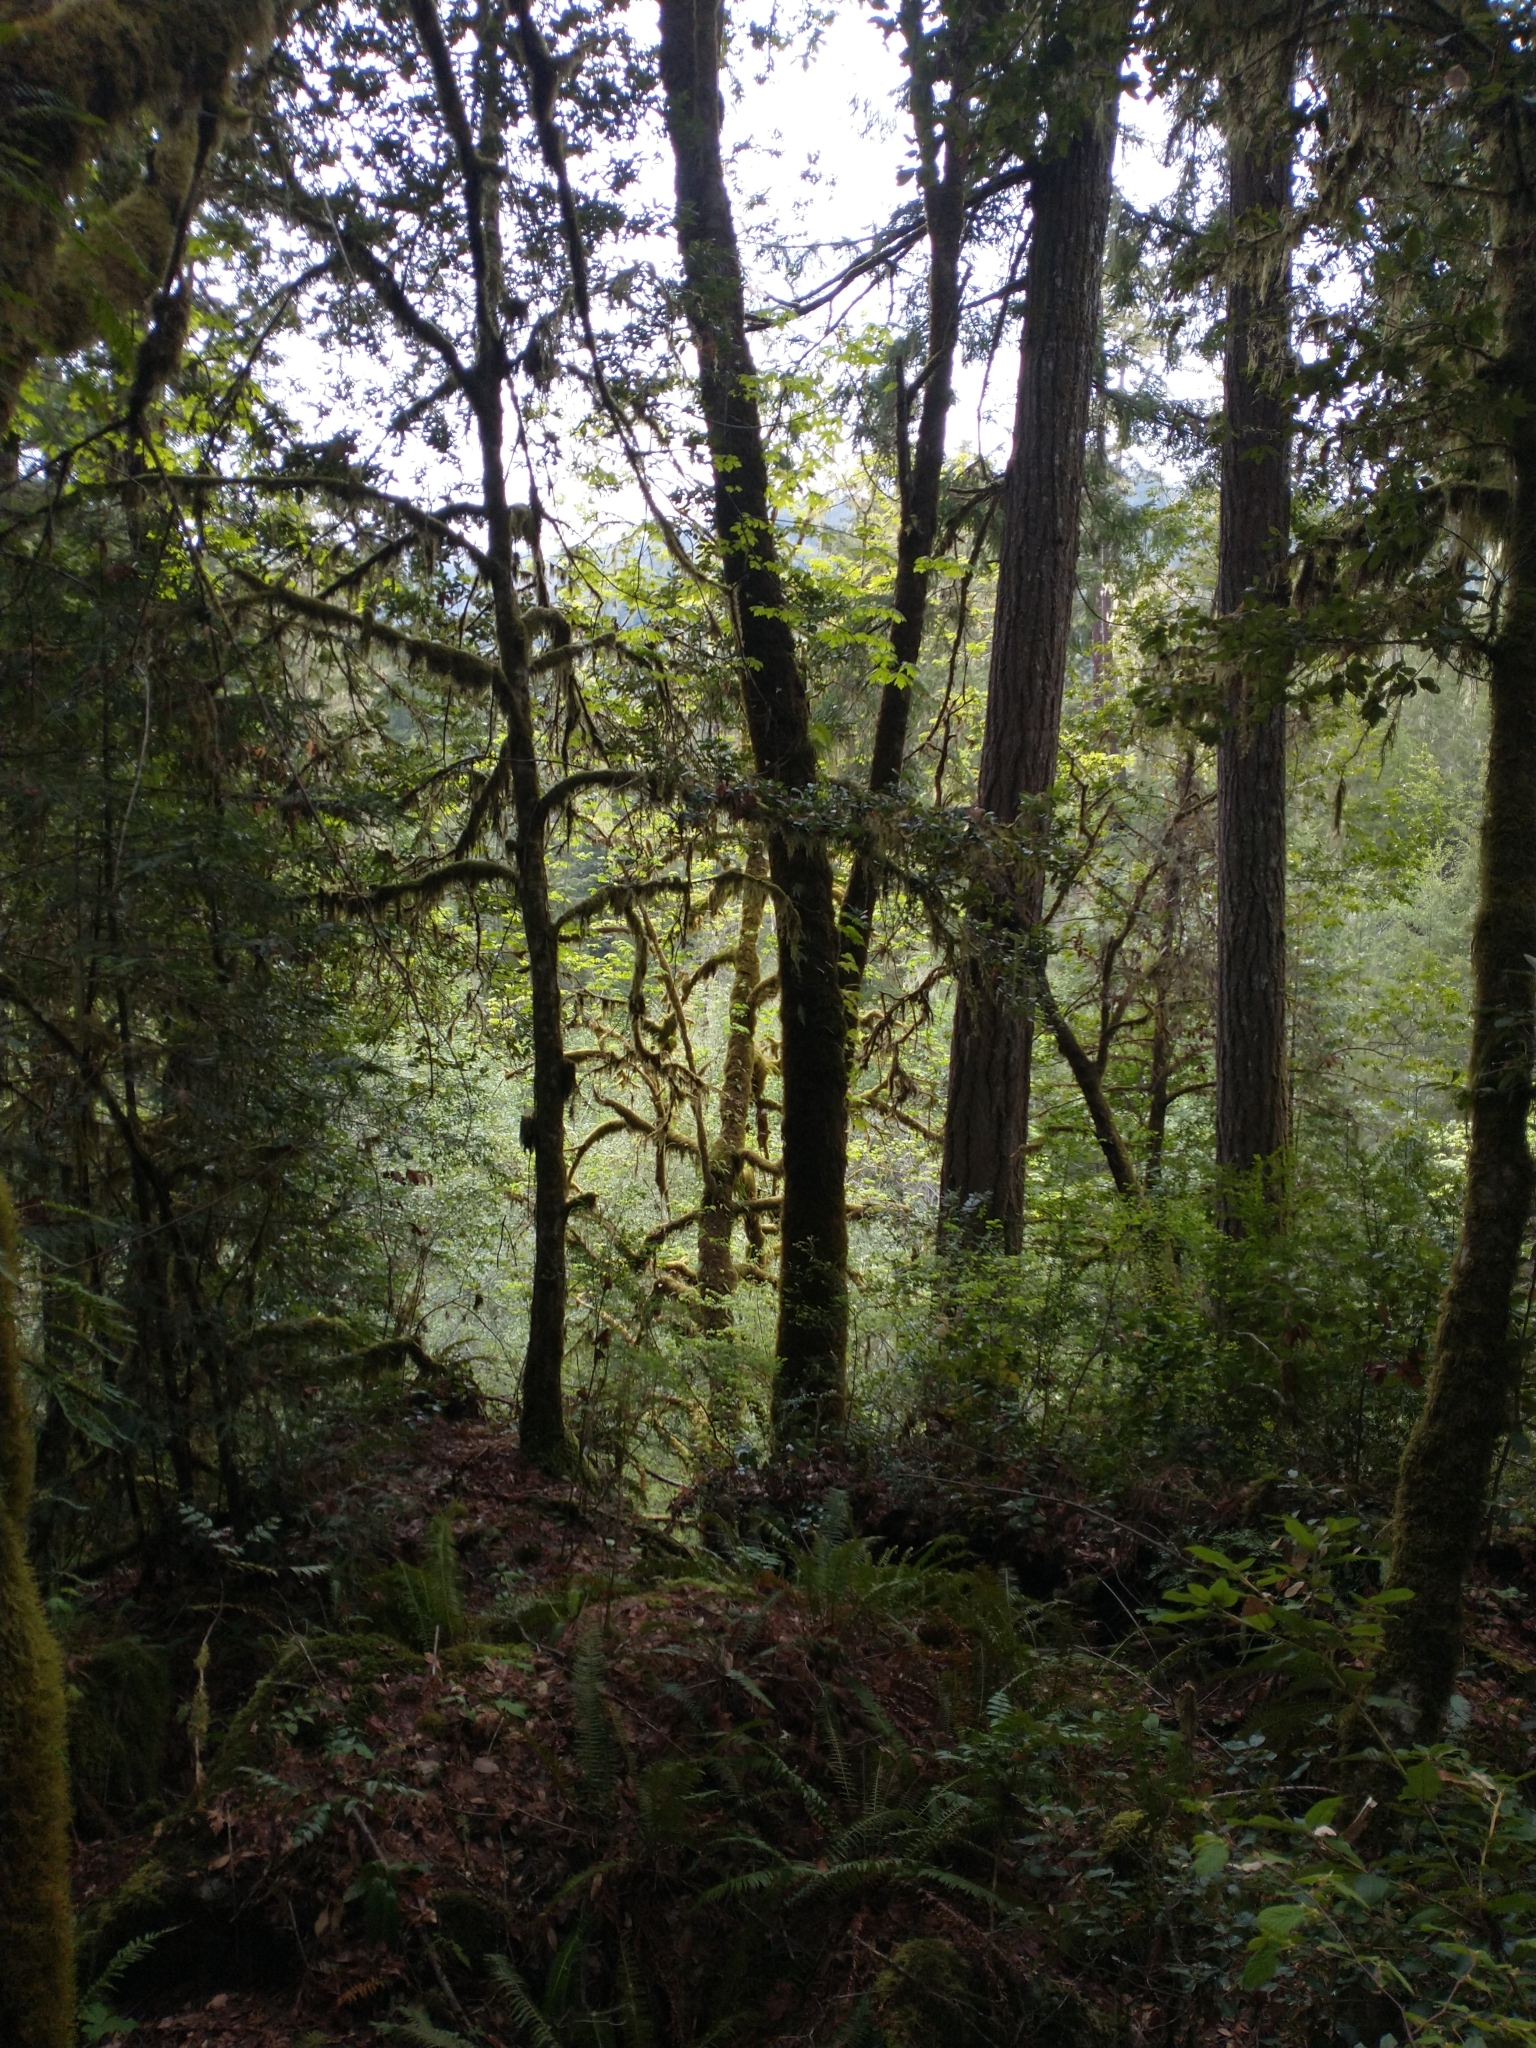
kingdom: Plantae
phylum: Tracheophyta
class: Magnoliopsida
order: Sapindales
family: Sapindaceae
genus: Acer
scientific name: Acer macrophyllum
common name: Oregon maple
